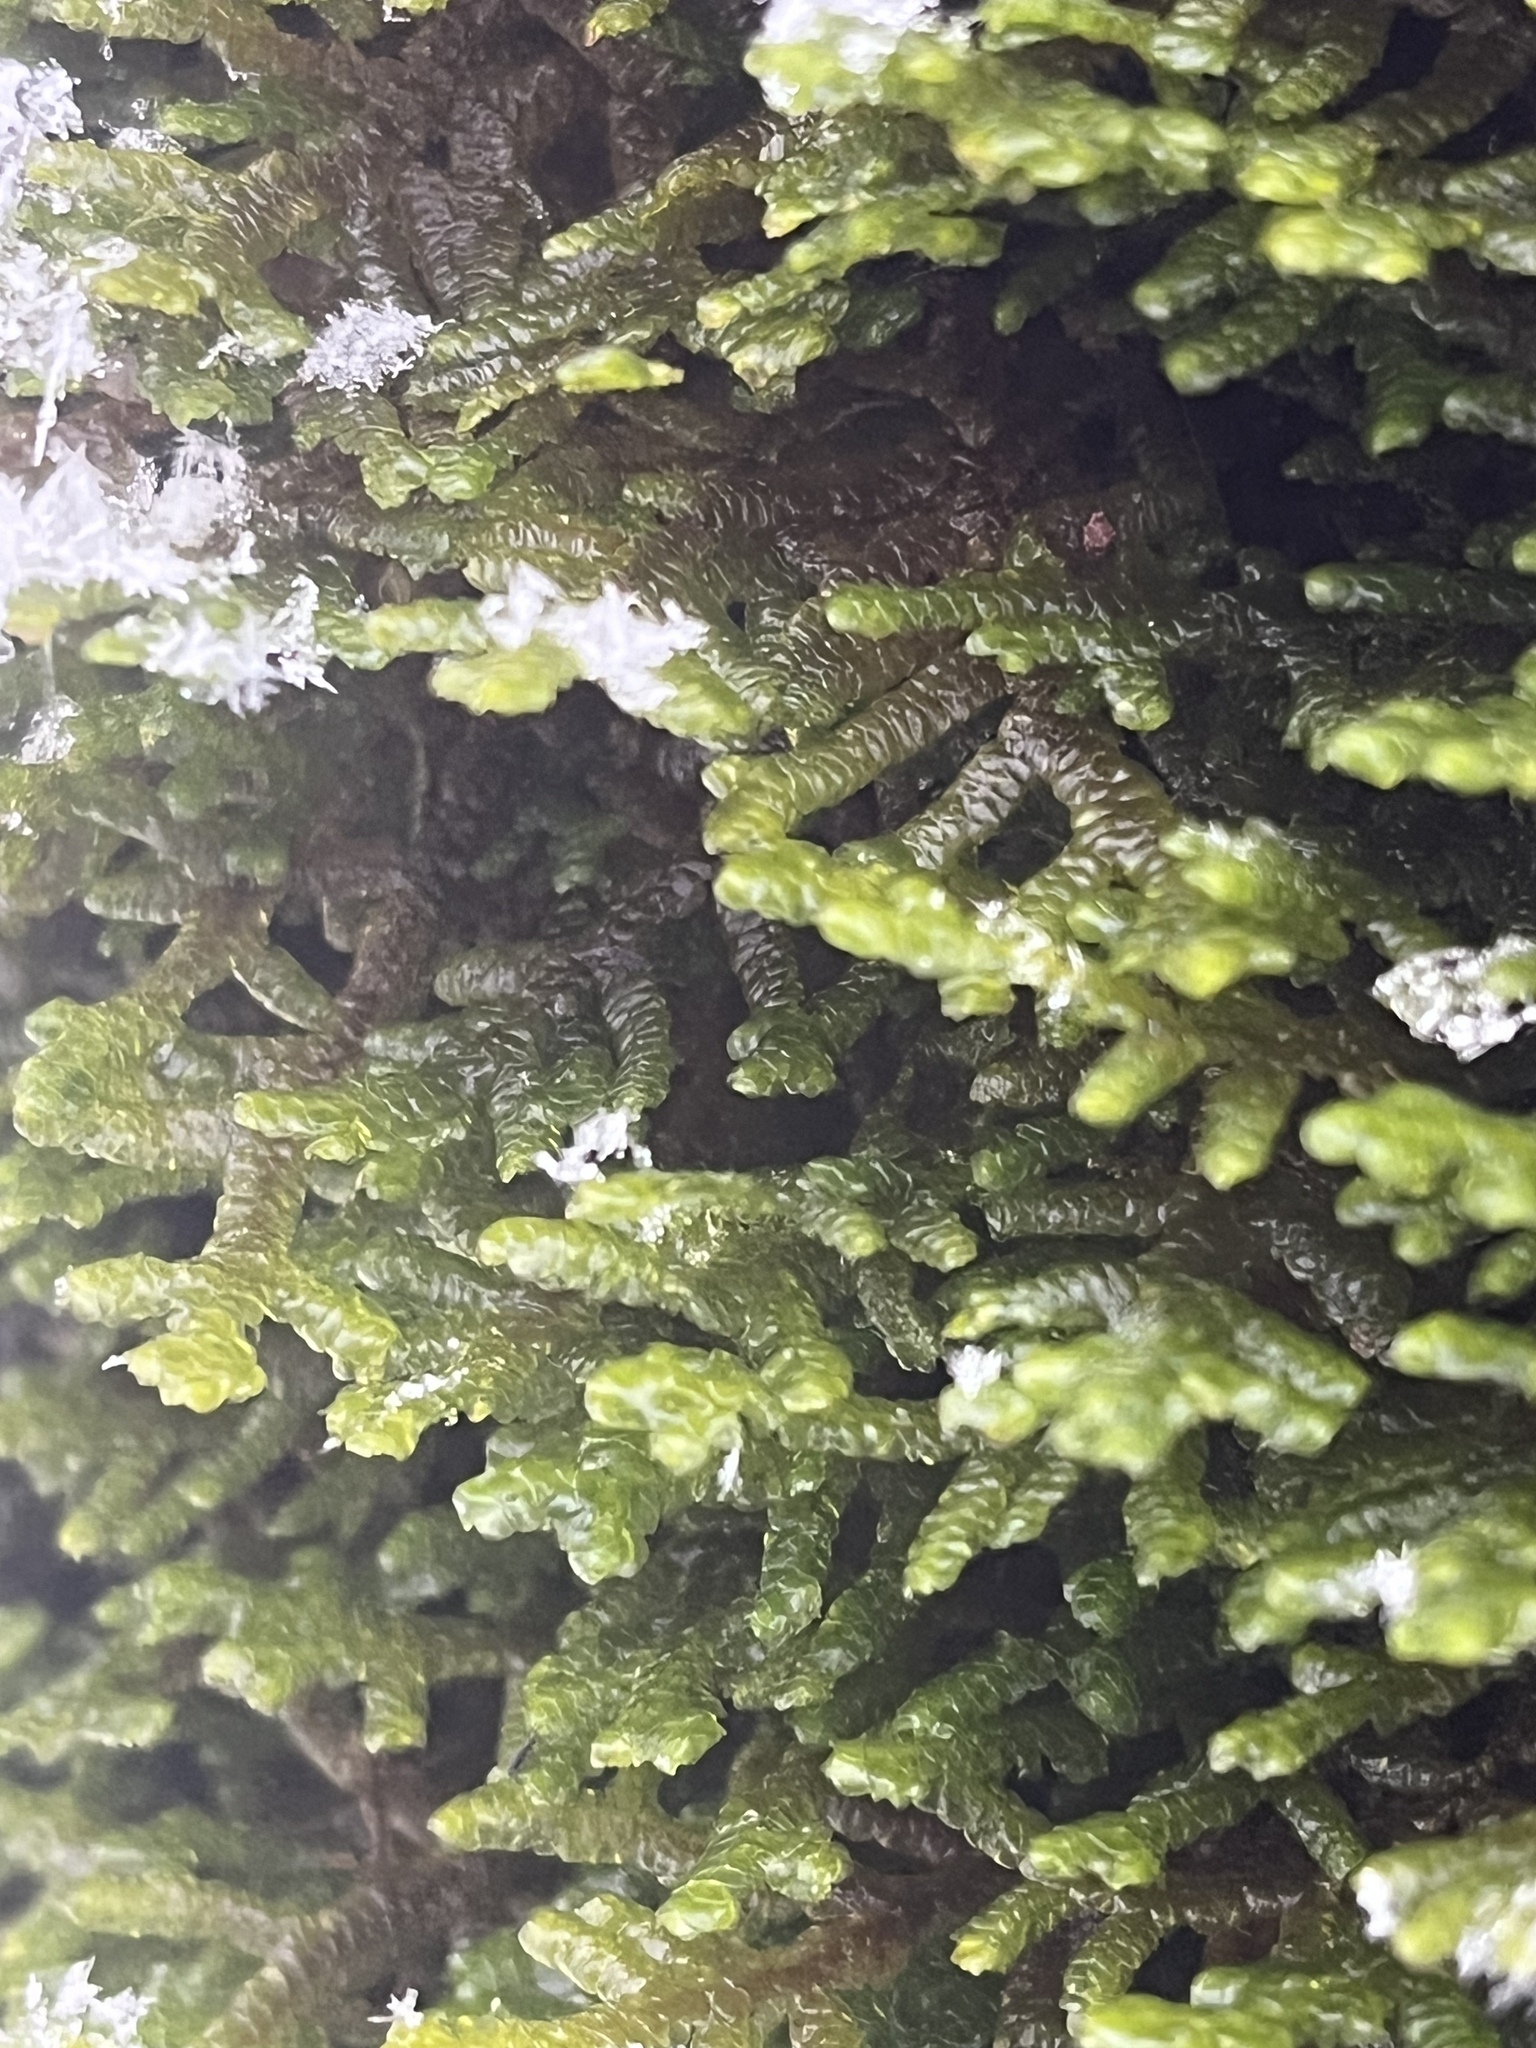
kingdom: Plantae
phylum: Marchantiophyta
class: Jungermanniopsida
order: Porellales
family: Porellaceae
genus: Porella
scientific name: Porella platyphylla
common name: Wall scalewort
